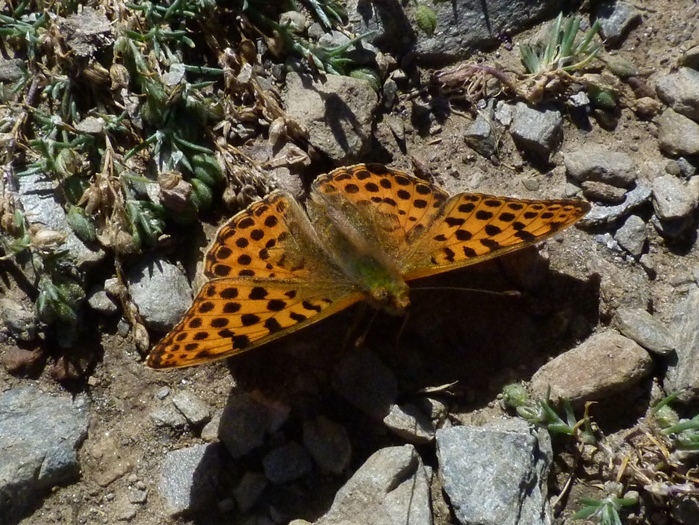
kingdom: Animalia
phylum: Arthropoda
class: Insecta
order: Lepidoptera
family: Nymphalidae
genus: Issoria
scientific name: Issoria lathonia
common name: Queen of spain fritillary
